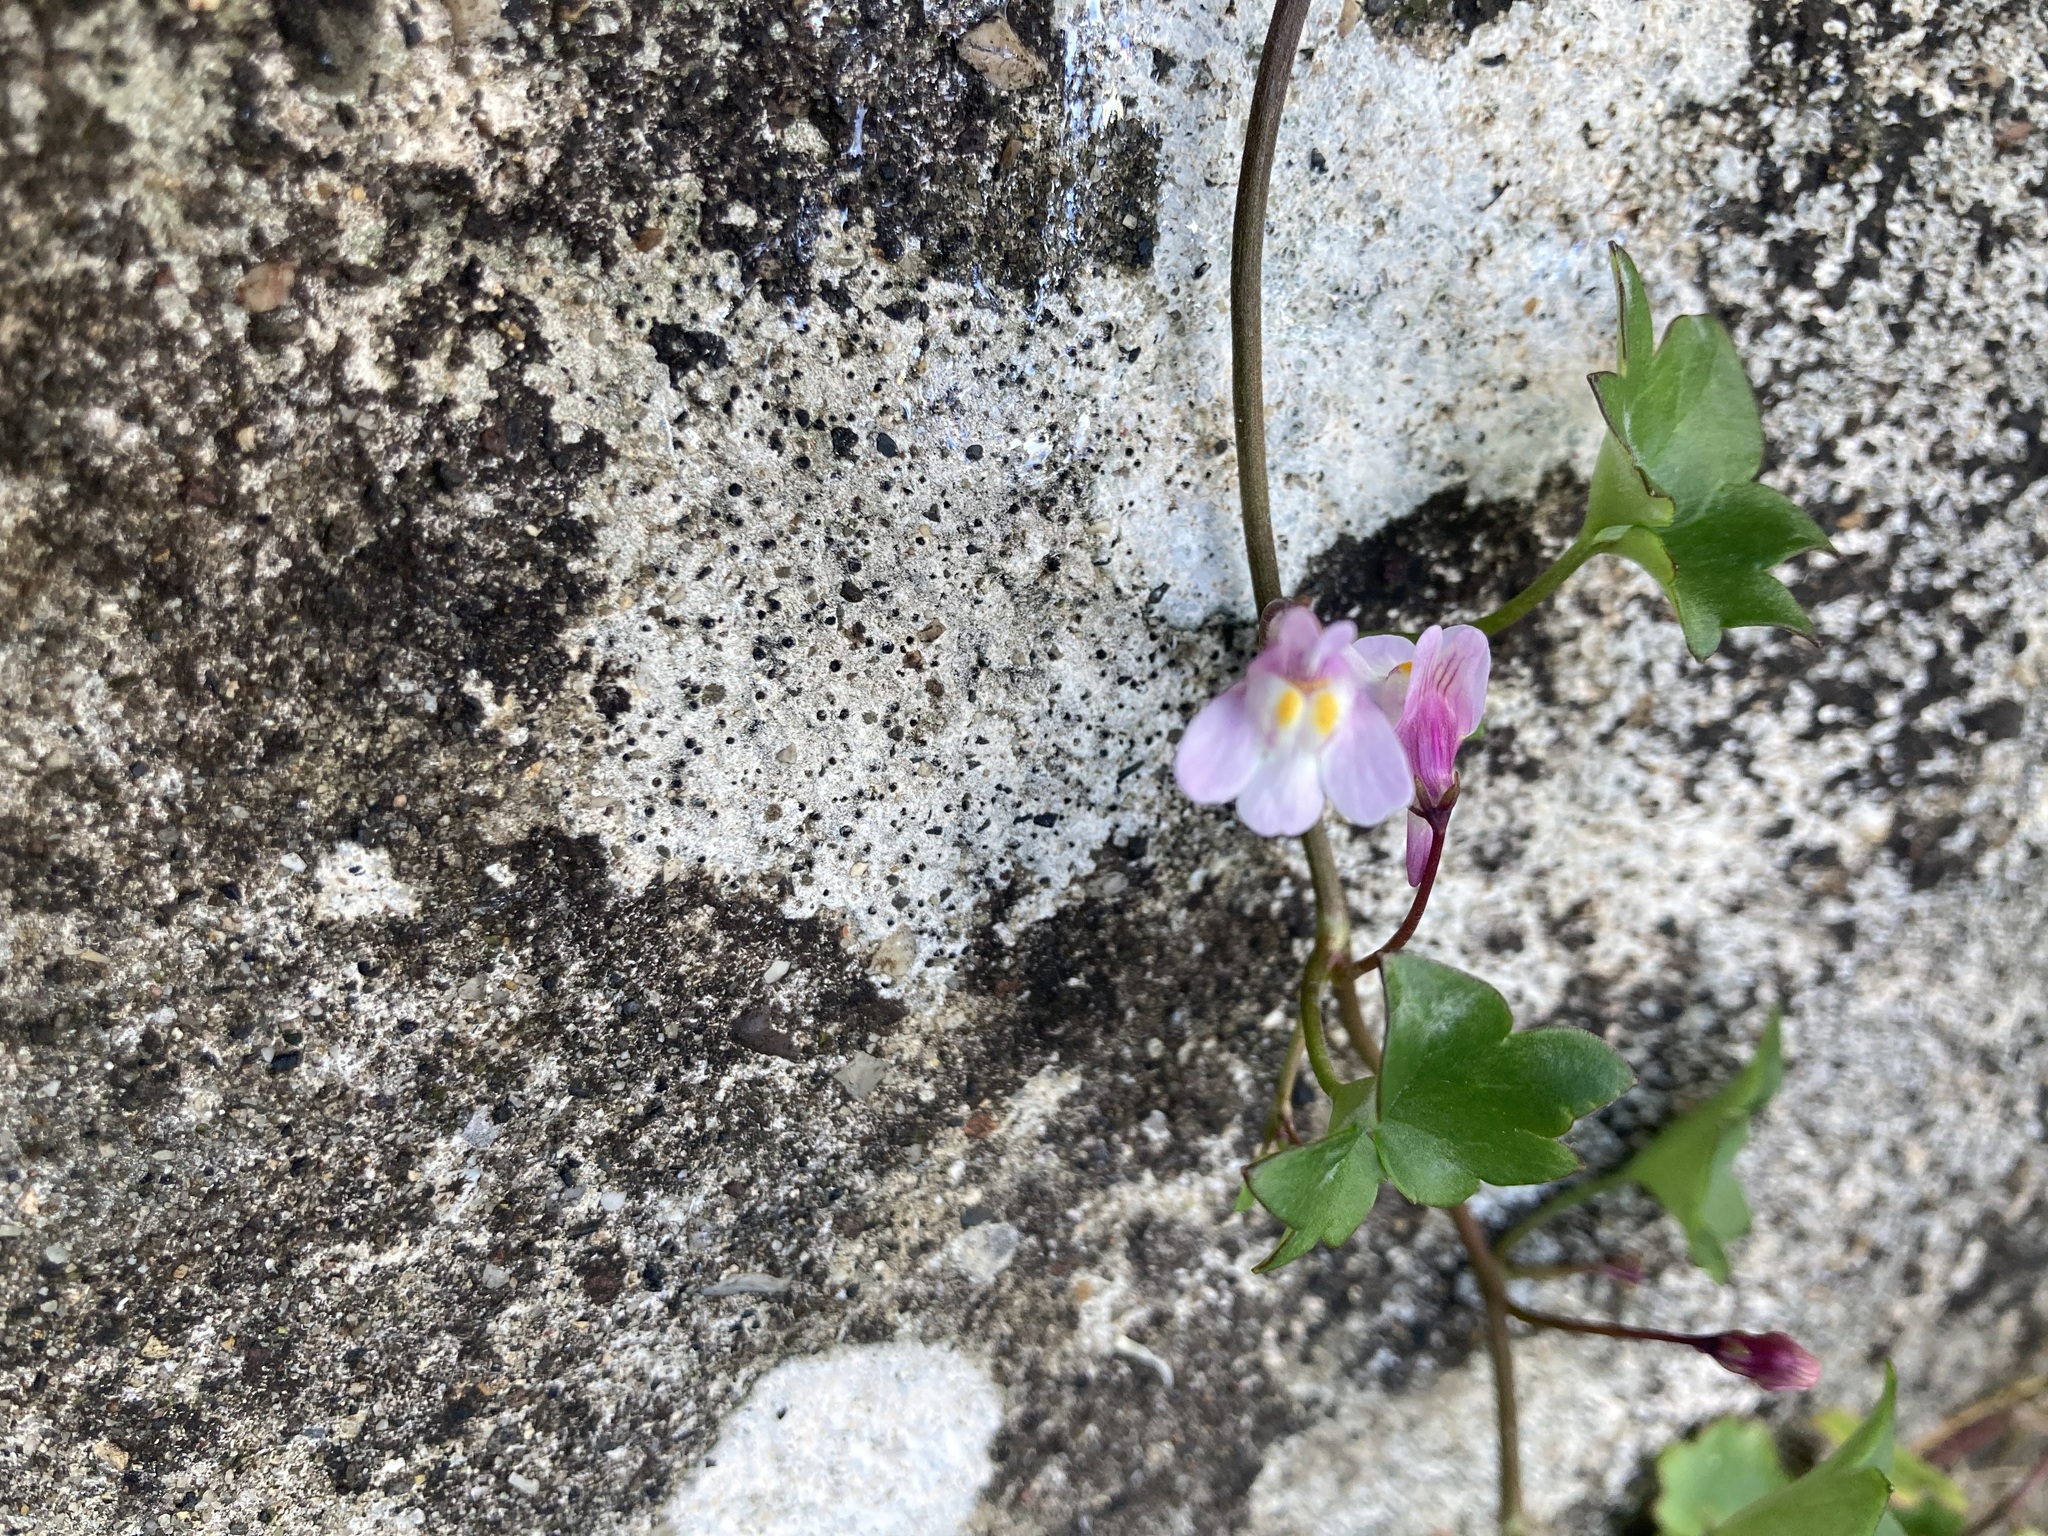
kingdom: Plantae
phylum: Tracheophyta
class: Magnoliopsida
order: Lamiales
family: Plantaginaceae
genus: Cymbalaria
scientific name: Cymbalaria muralis
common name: Ivy-leaved toadflax
